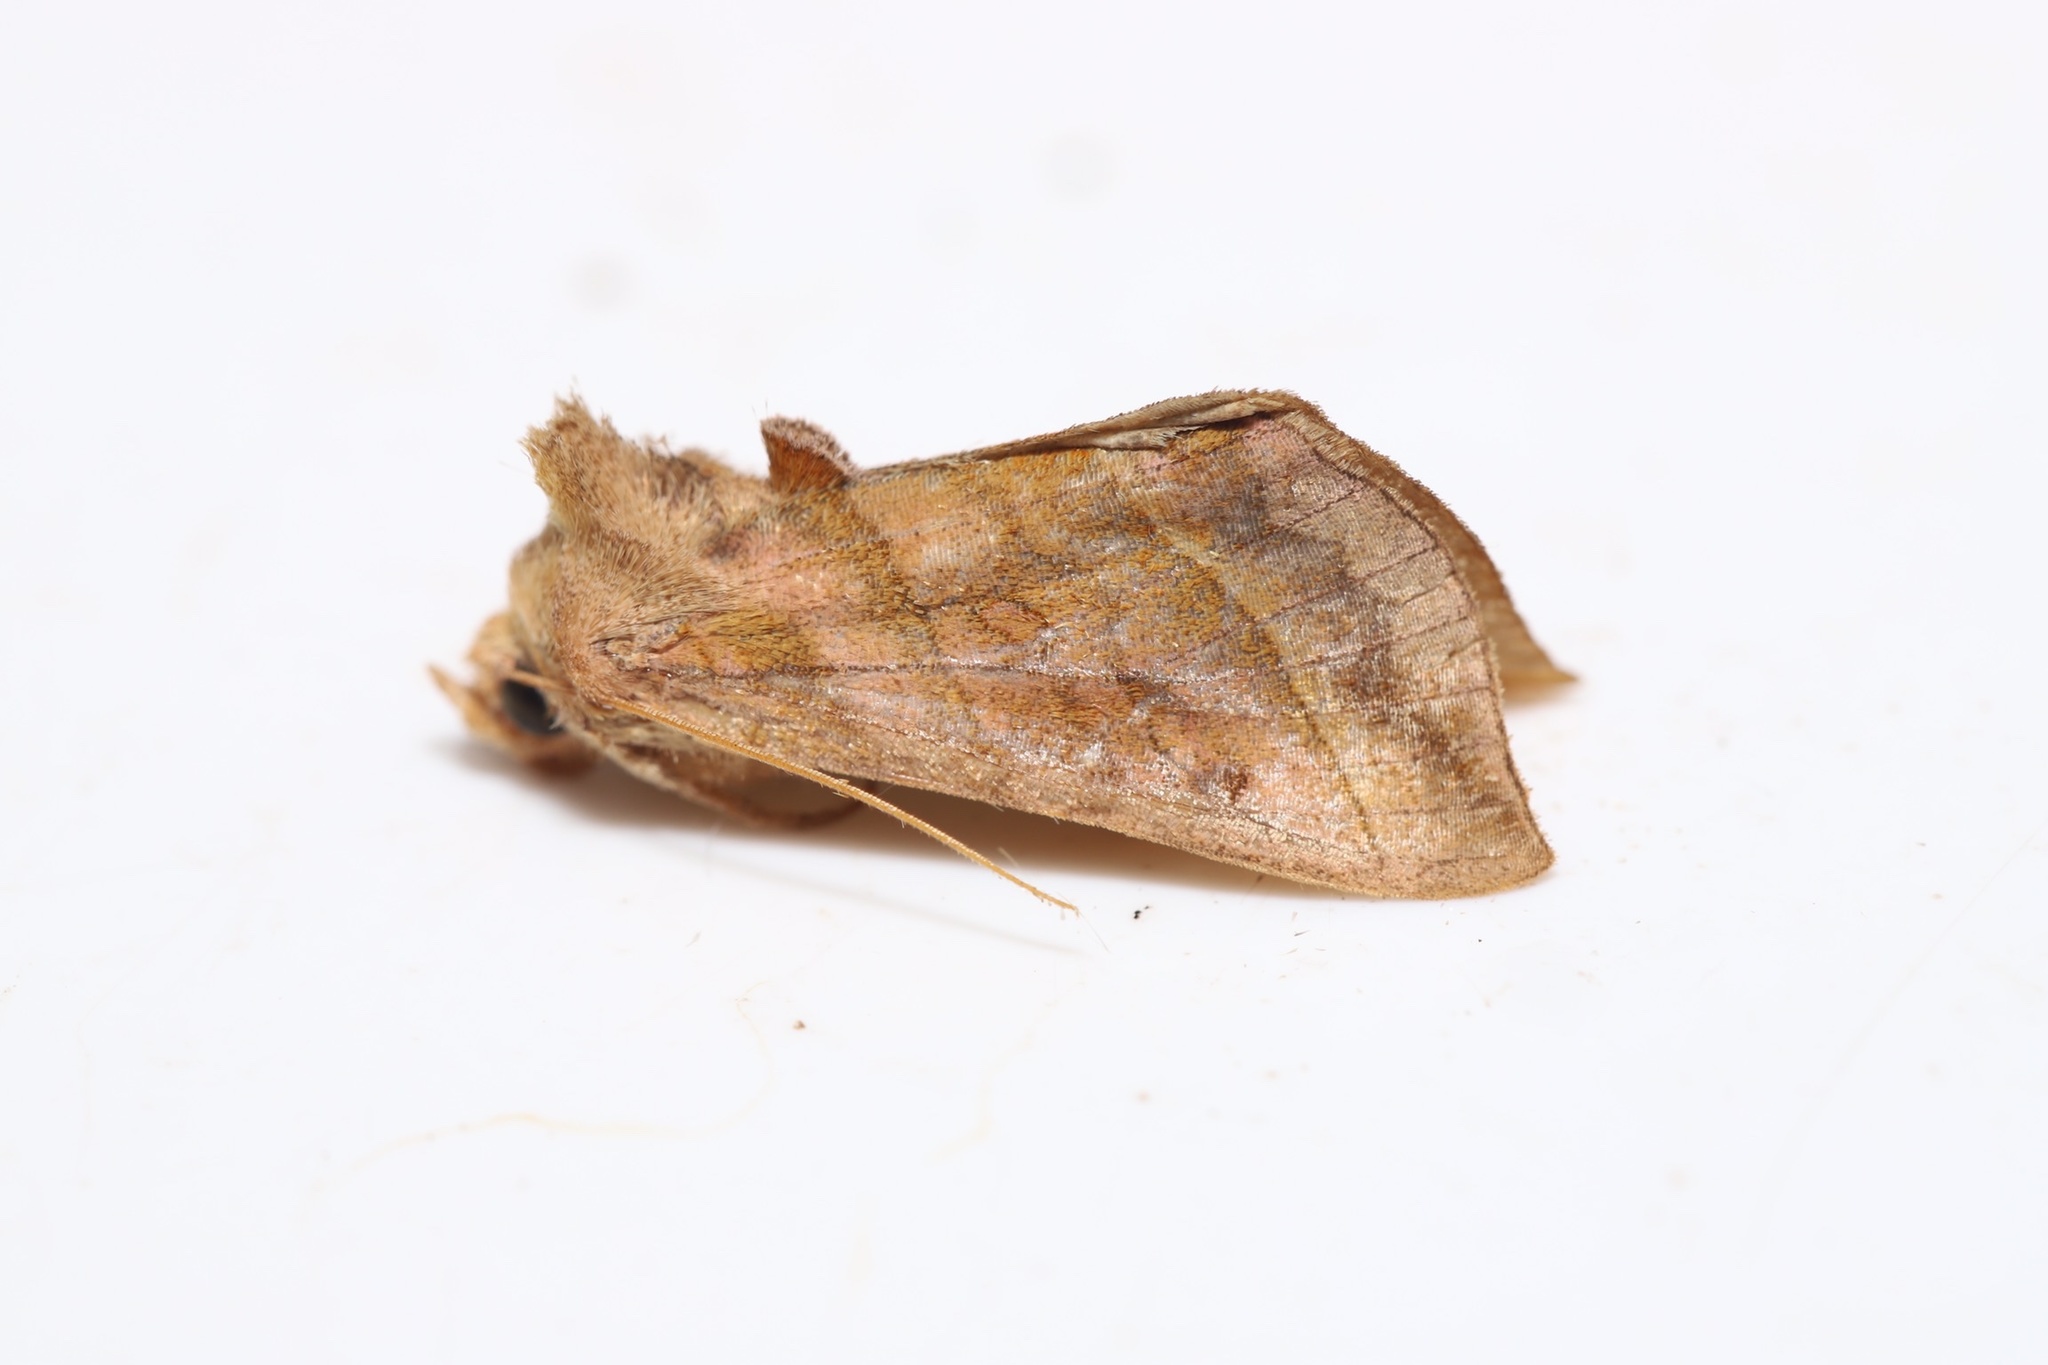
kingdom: Animalia
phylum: Arthropoda
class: Insecta
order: Lepidoptera
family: Noctuidae
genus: Diachrysia
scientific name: Diachrysia aereoides
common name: Dark-spotted looper moth
